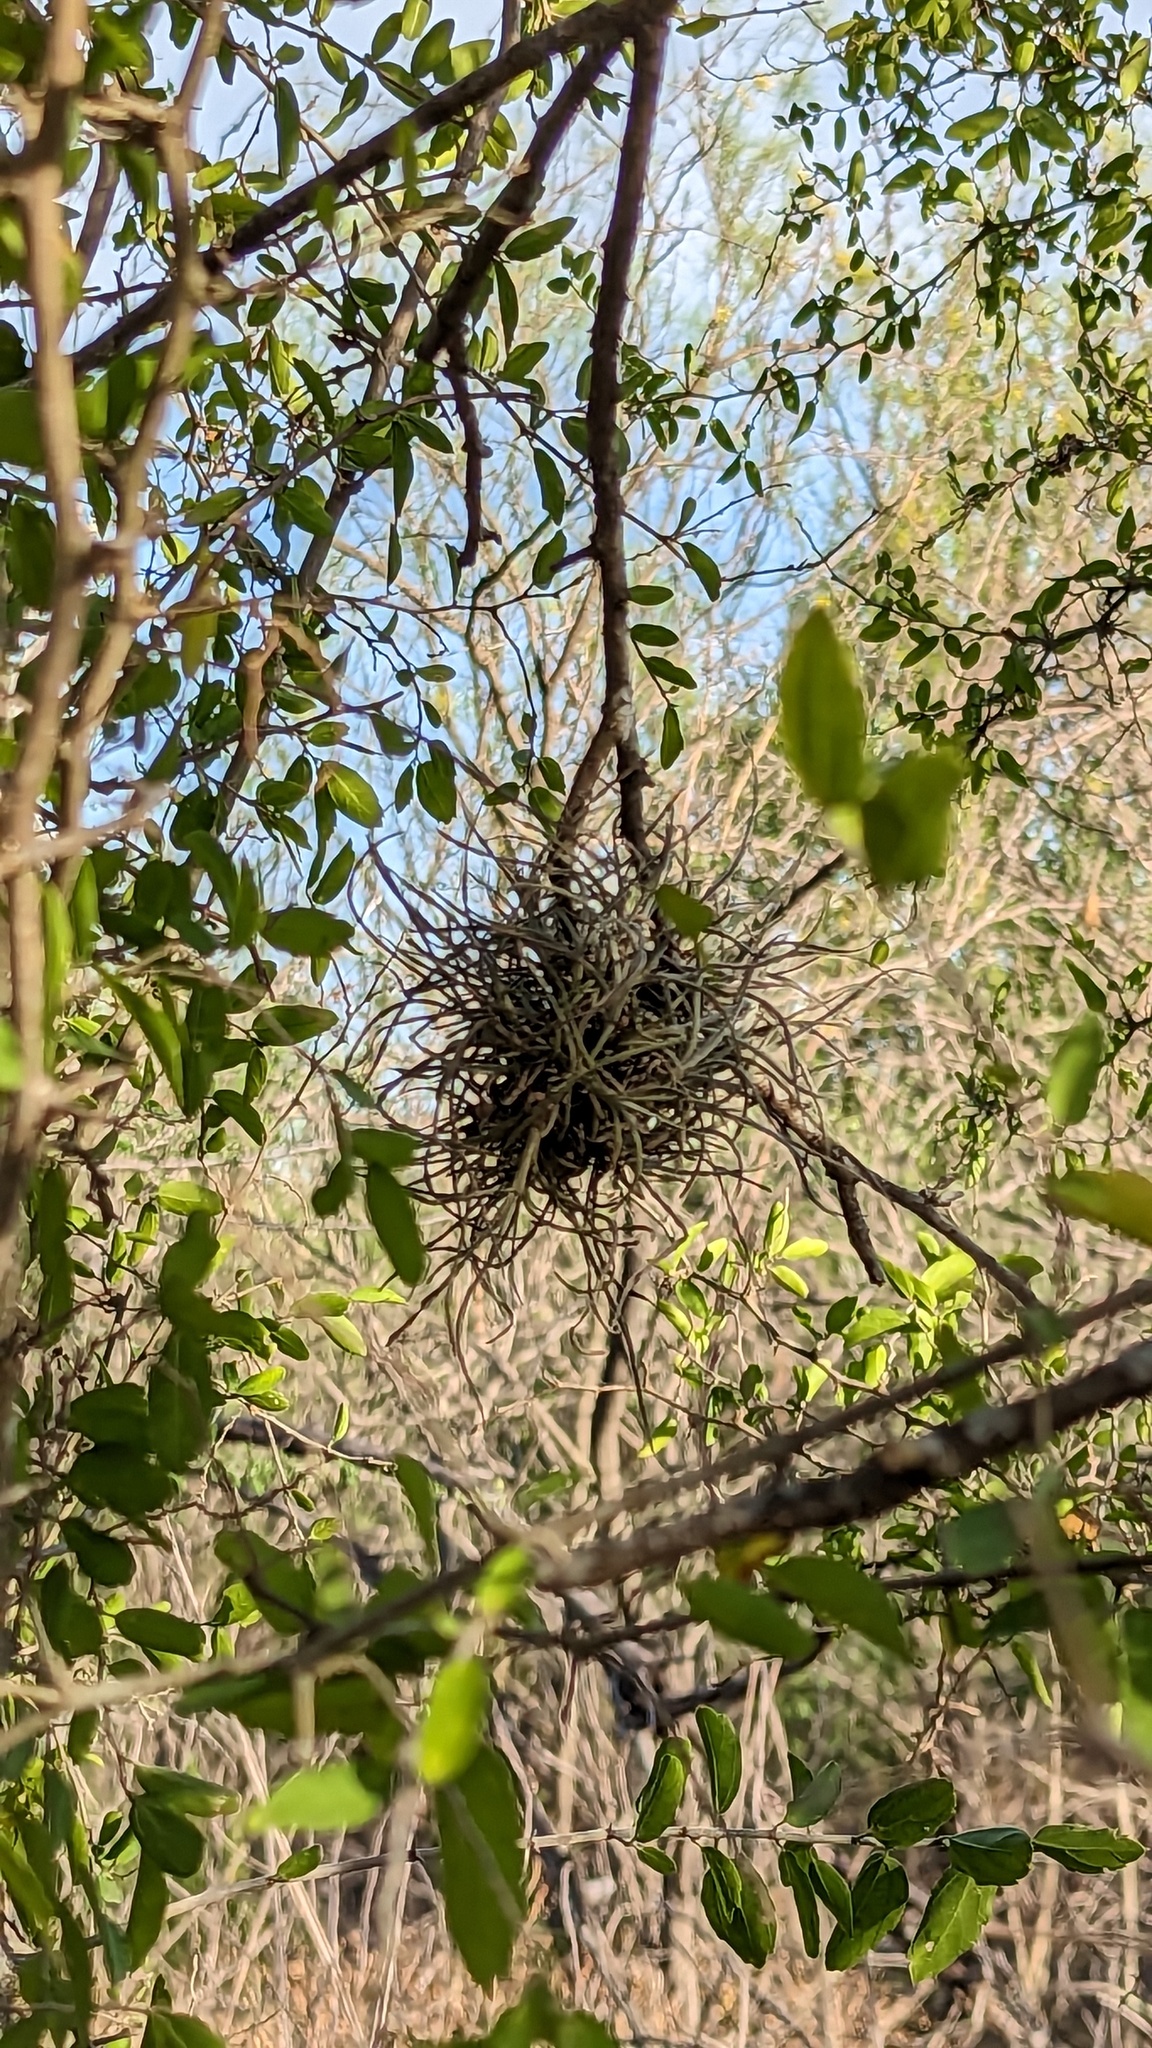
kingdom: Plantae
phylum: Tracheophyta
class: Liliopsida
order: Poales
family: Bromeliaceae
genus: Tillandsia
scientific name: Tillandsia recurvata
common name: Small ballmoss
